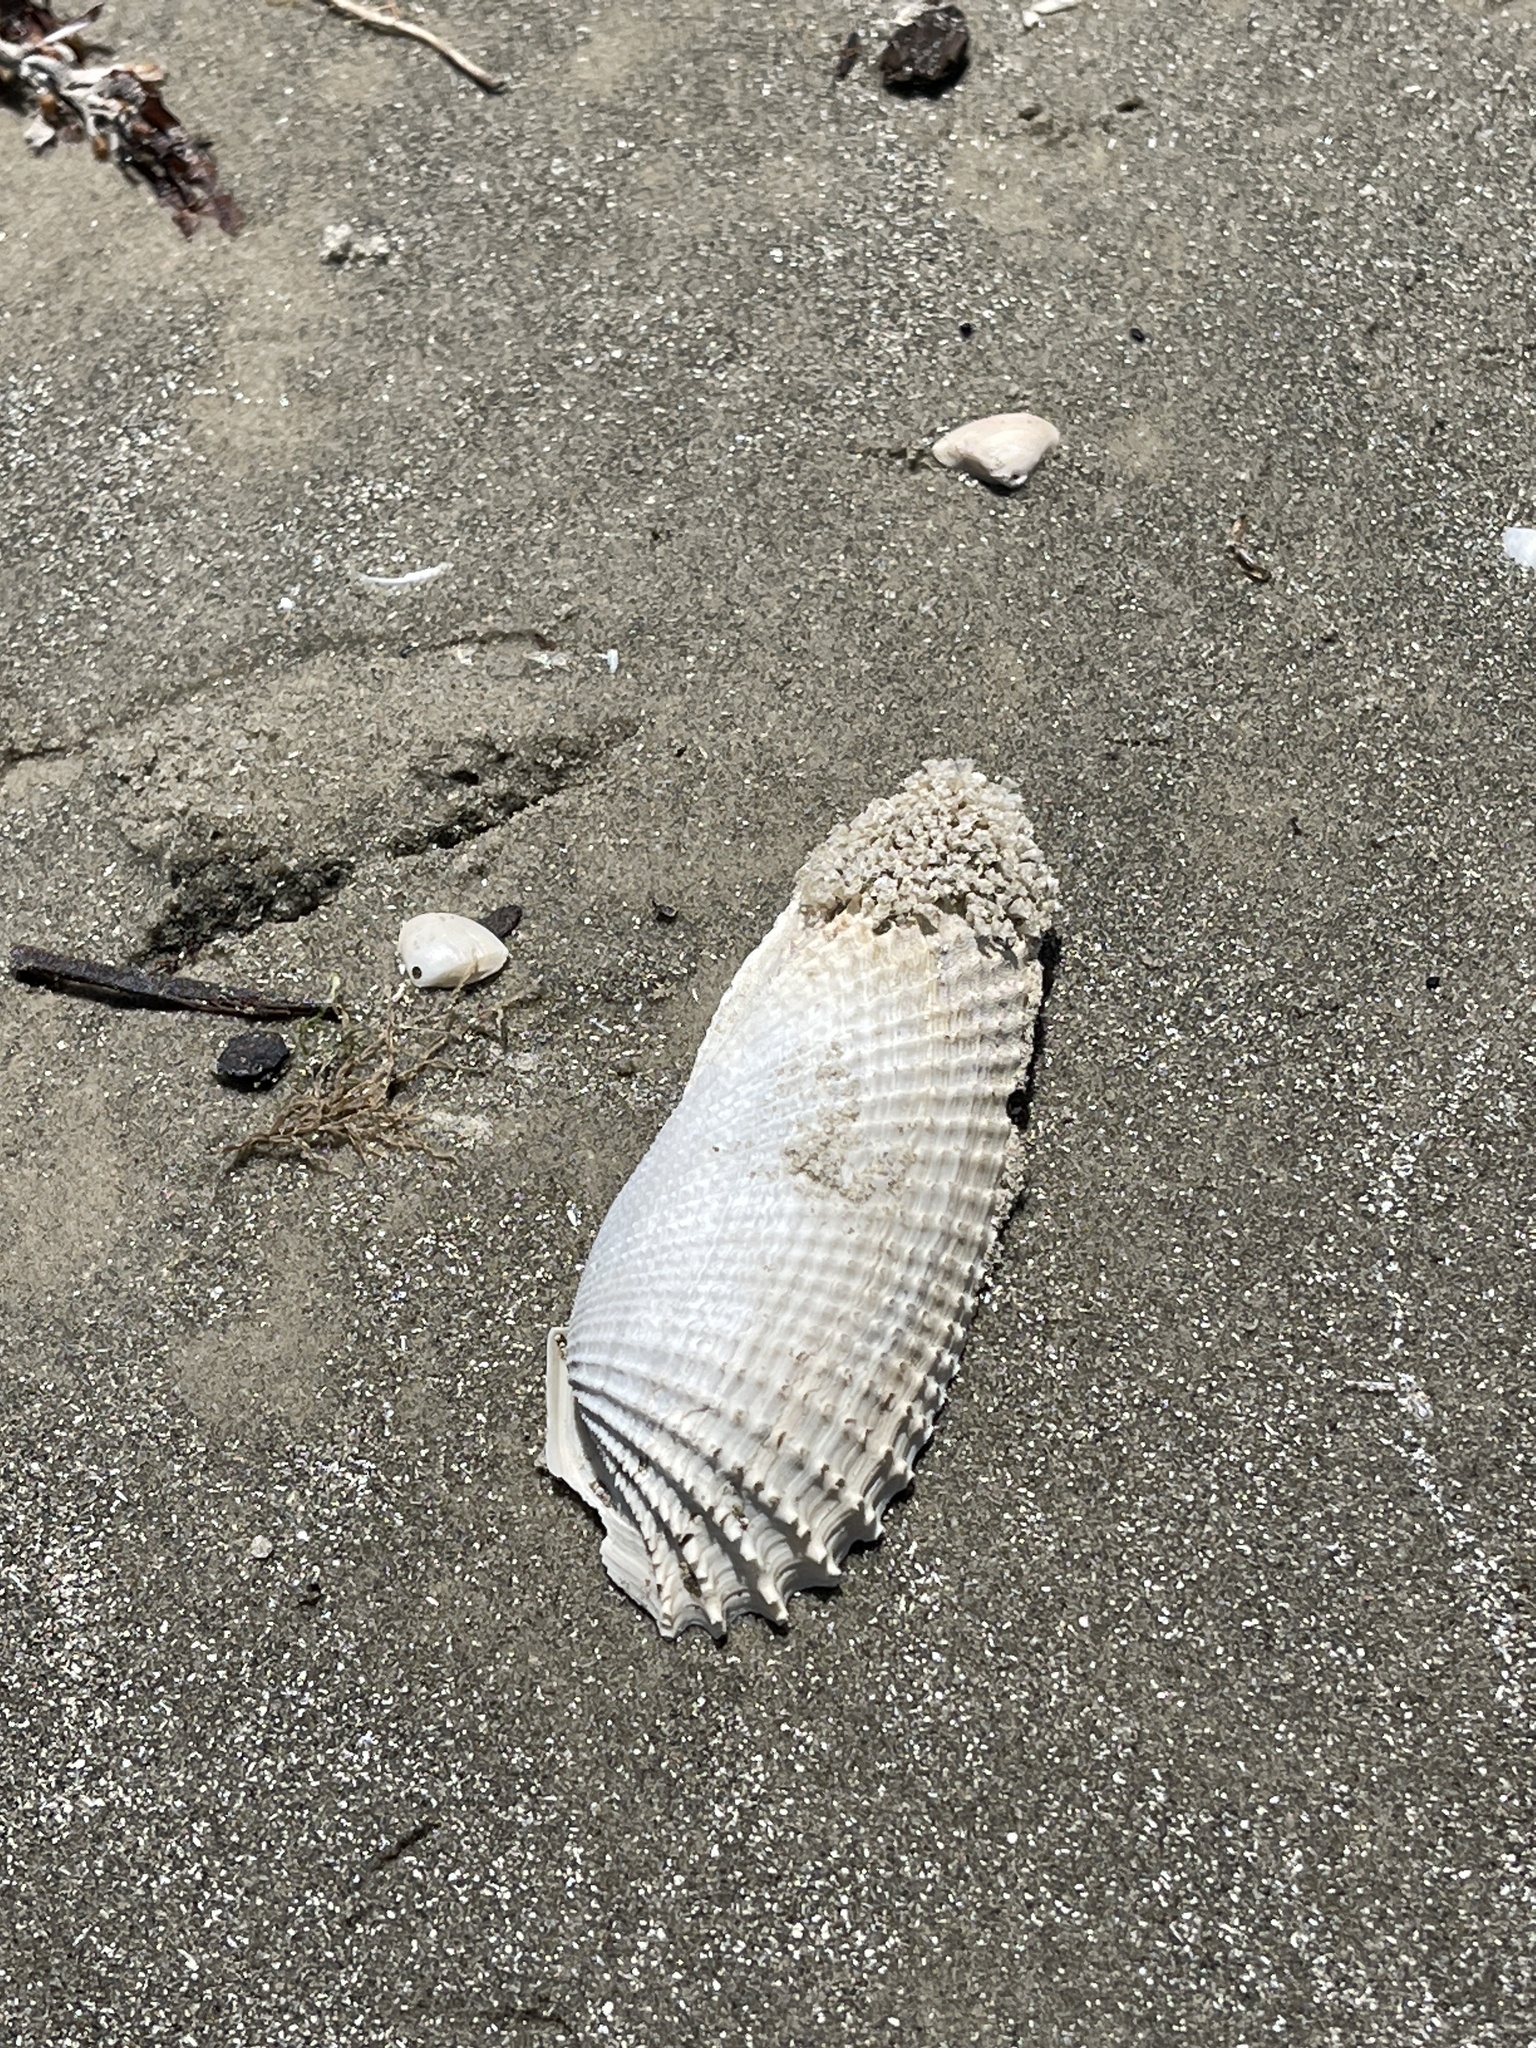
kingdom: Animalia
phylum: Mollusca
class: Bivalvia
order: Myida
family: Pholadidae
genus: Cyrtopleura
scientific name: Cyrtopleura costata
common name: Angel wing
